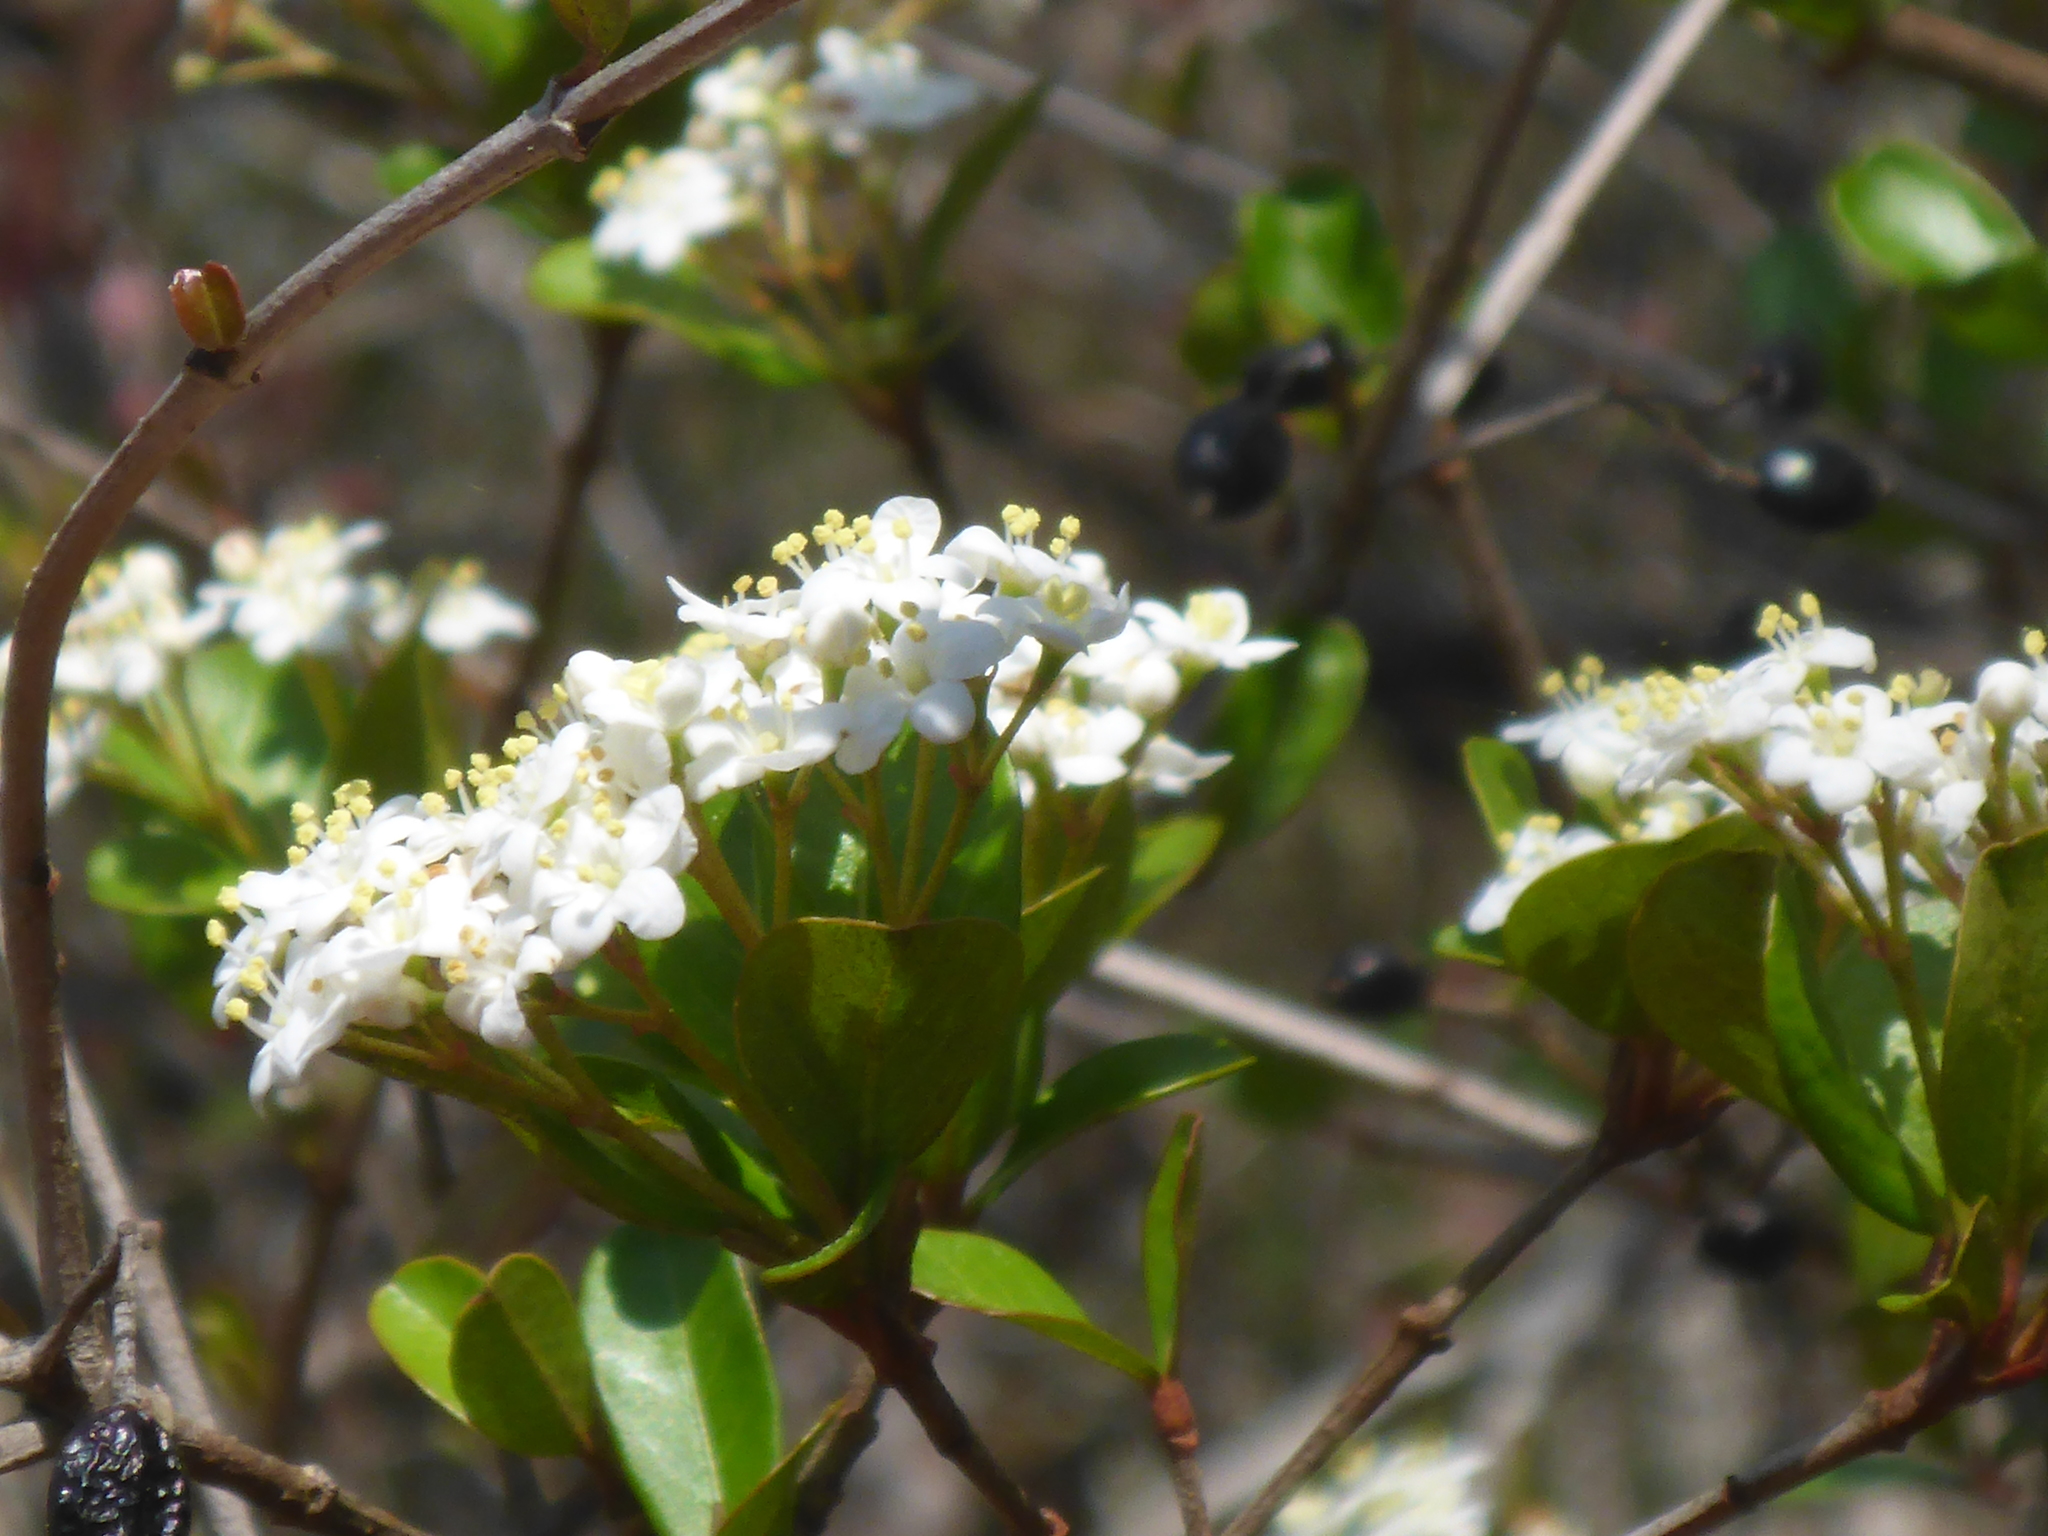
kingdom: Plantae
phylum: Tracheophyta
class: Magnoliopsida
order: Dipsacales
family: Viburnaceae
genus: Viburnum
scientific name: Viburnum obovatum
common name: Walter's viburnum
